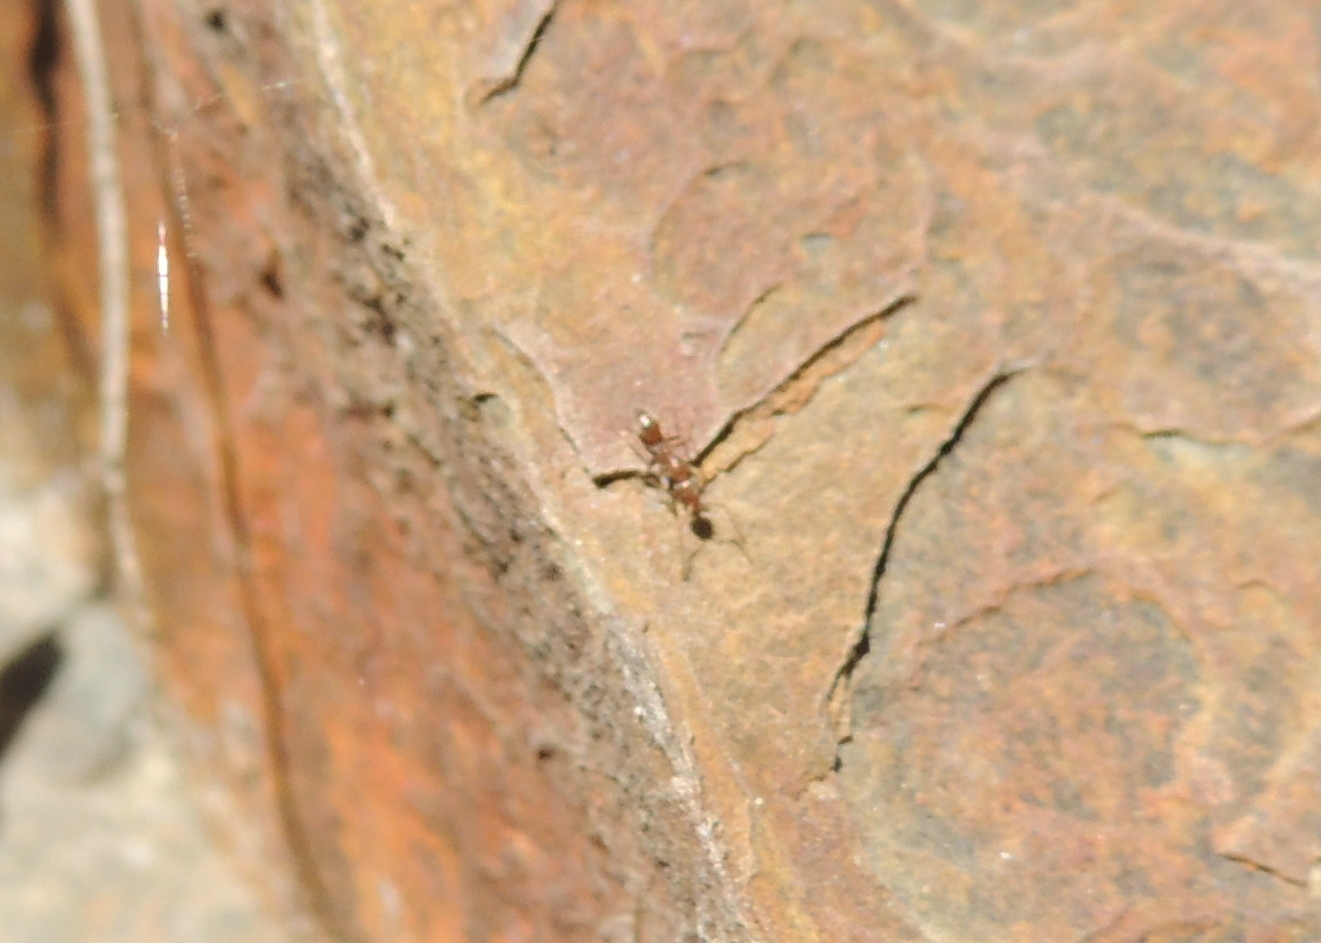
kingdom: Animalia
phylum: Arthropoda
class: Insecta
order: Hymenoptera
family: Formicidae
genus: Linepithema
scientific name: Linepithema humile
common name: Argentine ant
